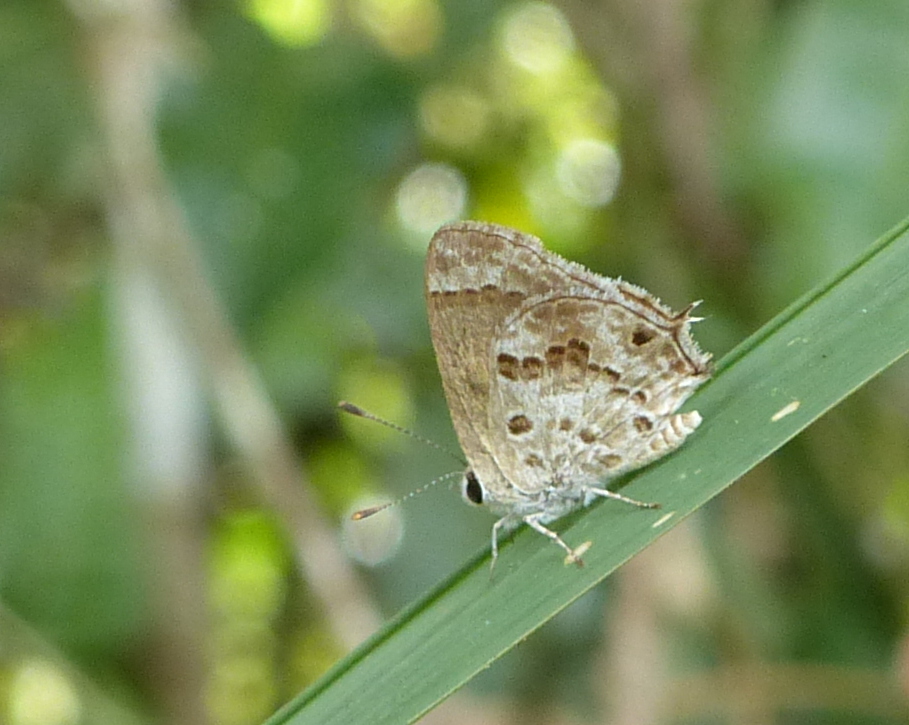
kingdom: Animalia
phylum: Arthropoda
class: Insecta
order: Lepidoptera
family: Lycaenidae
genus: Strymon
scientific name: Strymon astiocha
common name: Gray-spotted scrub-hairstreak
